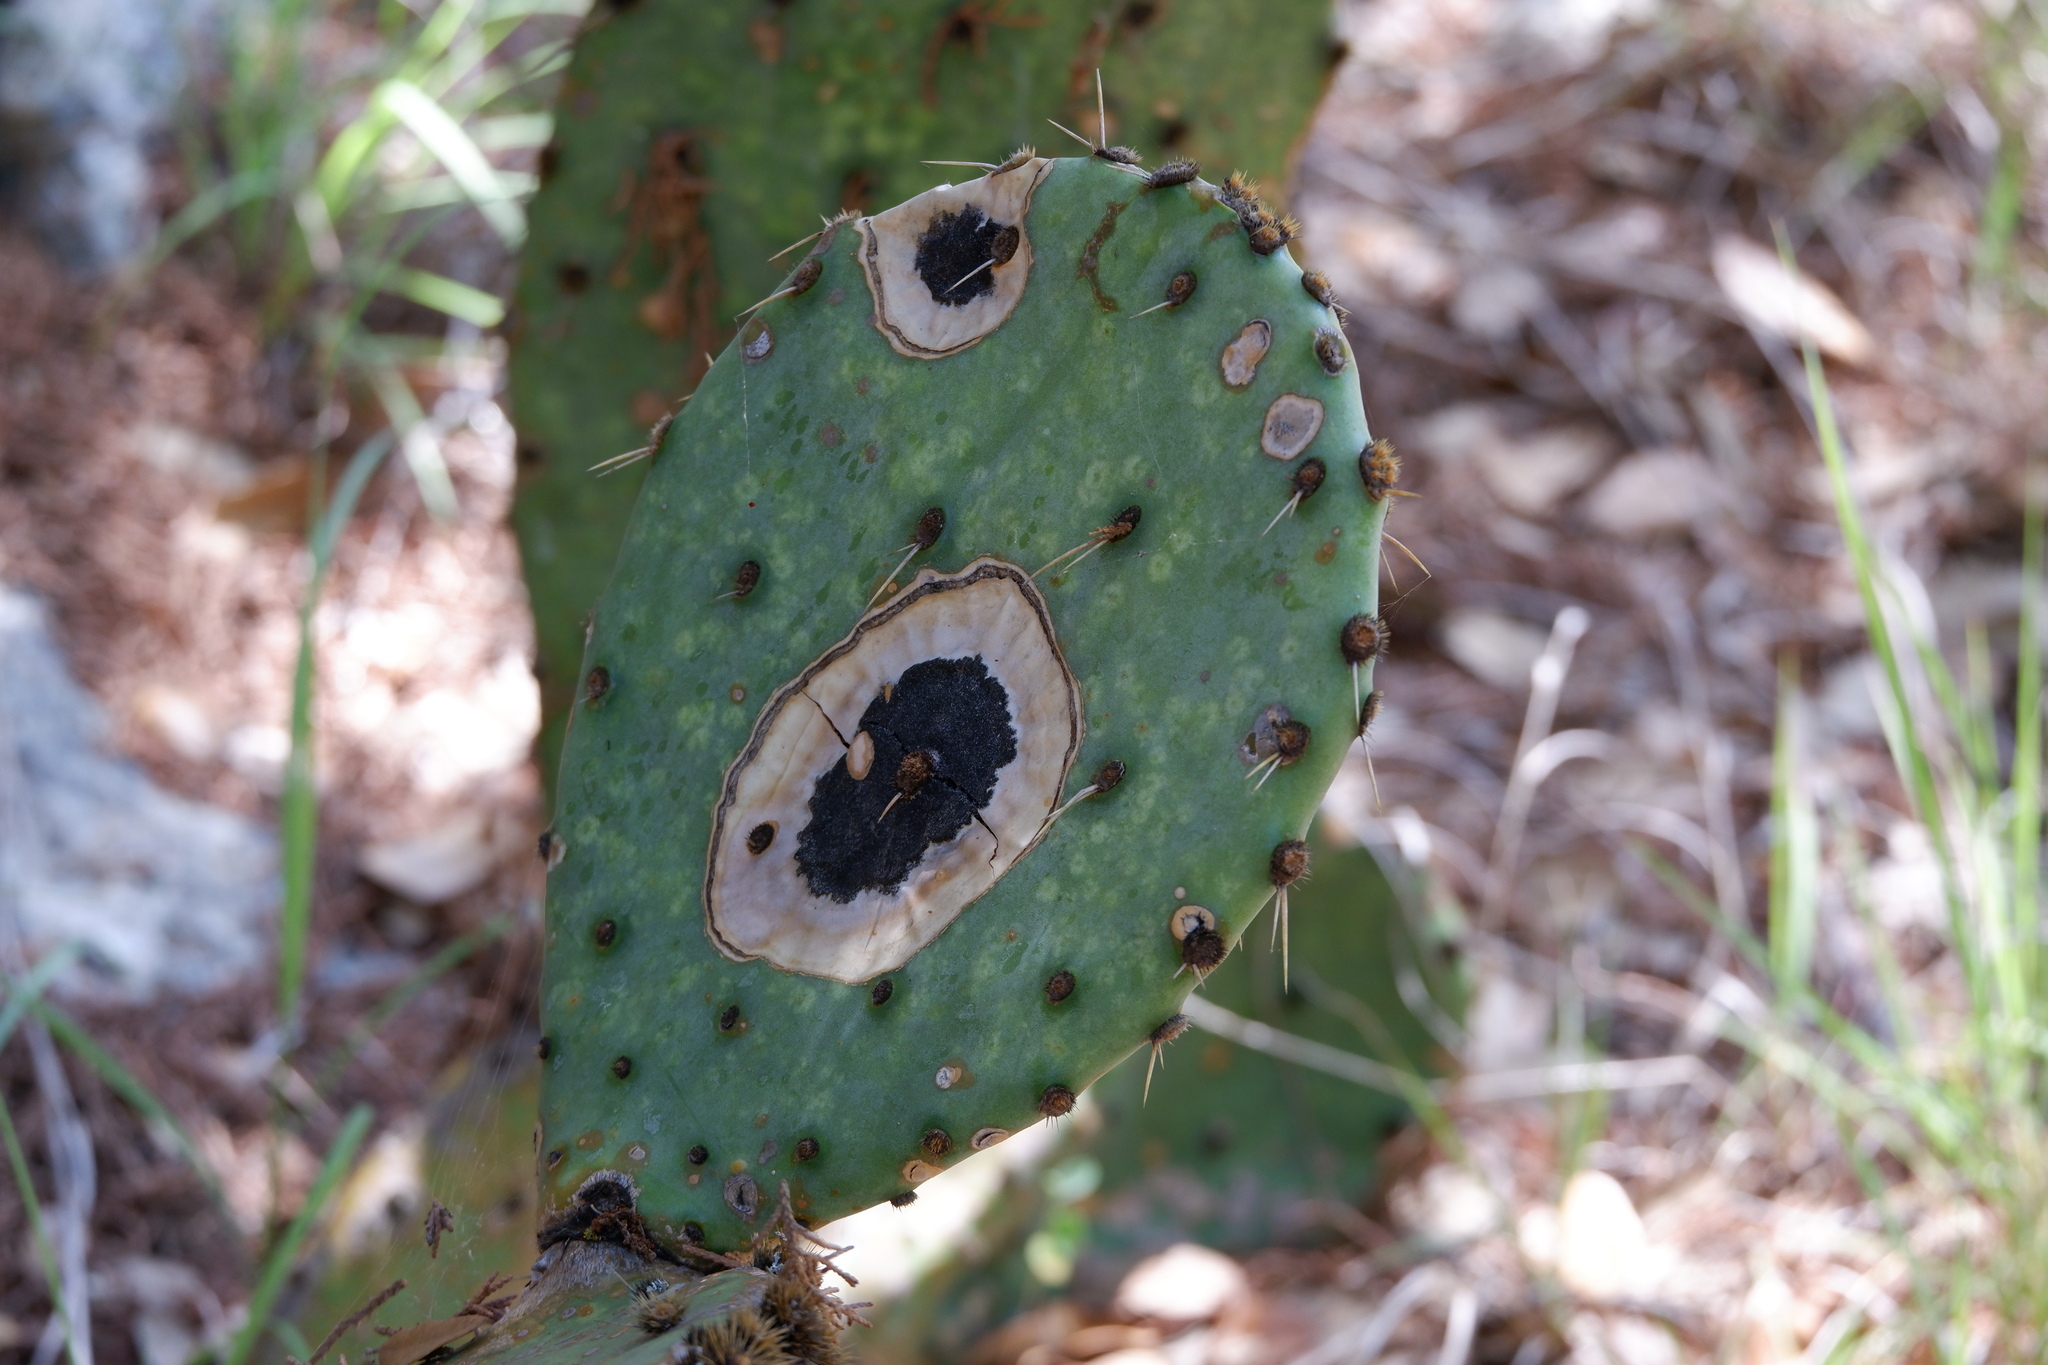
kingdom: Fungi
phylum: Ascomycota
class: Dothideomycetes
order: Botryosphaeriales
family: Phyllostictaceae
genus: Phyllosticta
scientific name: Phyllosticta concava
